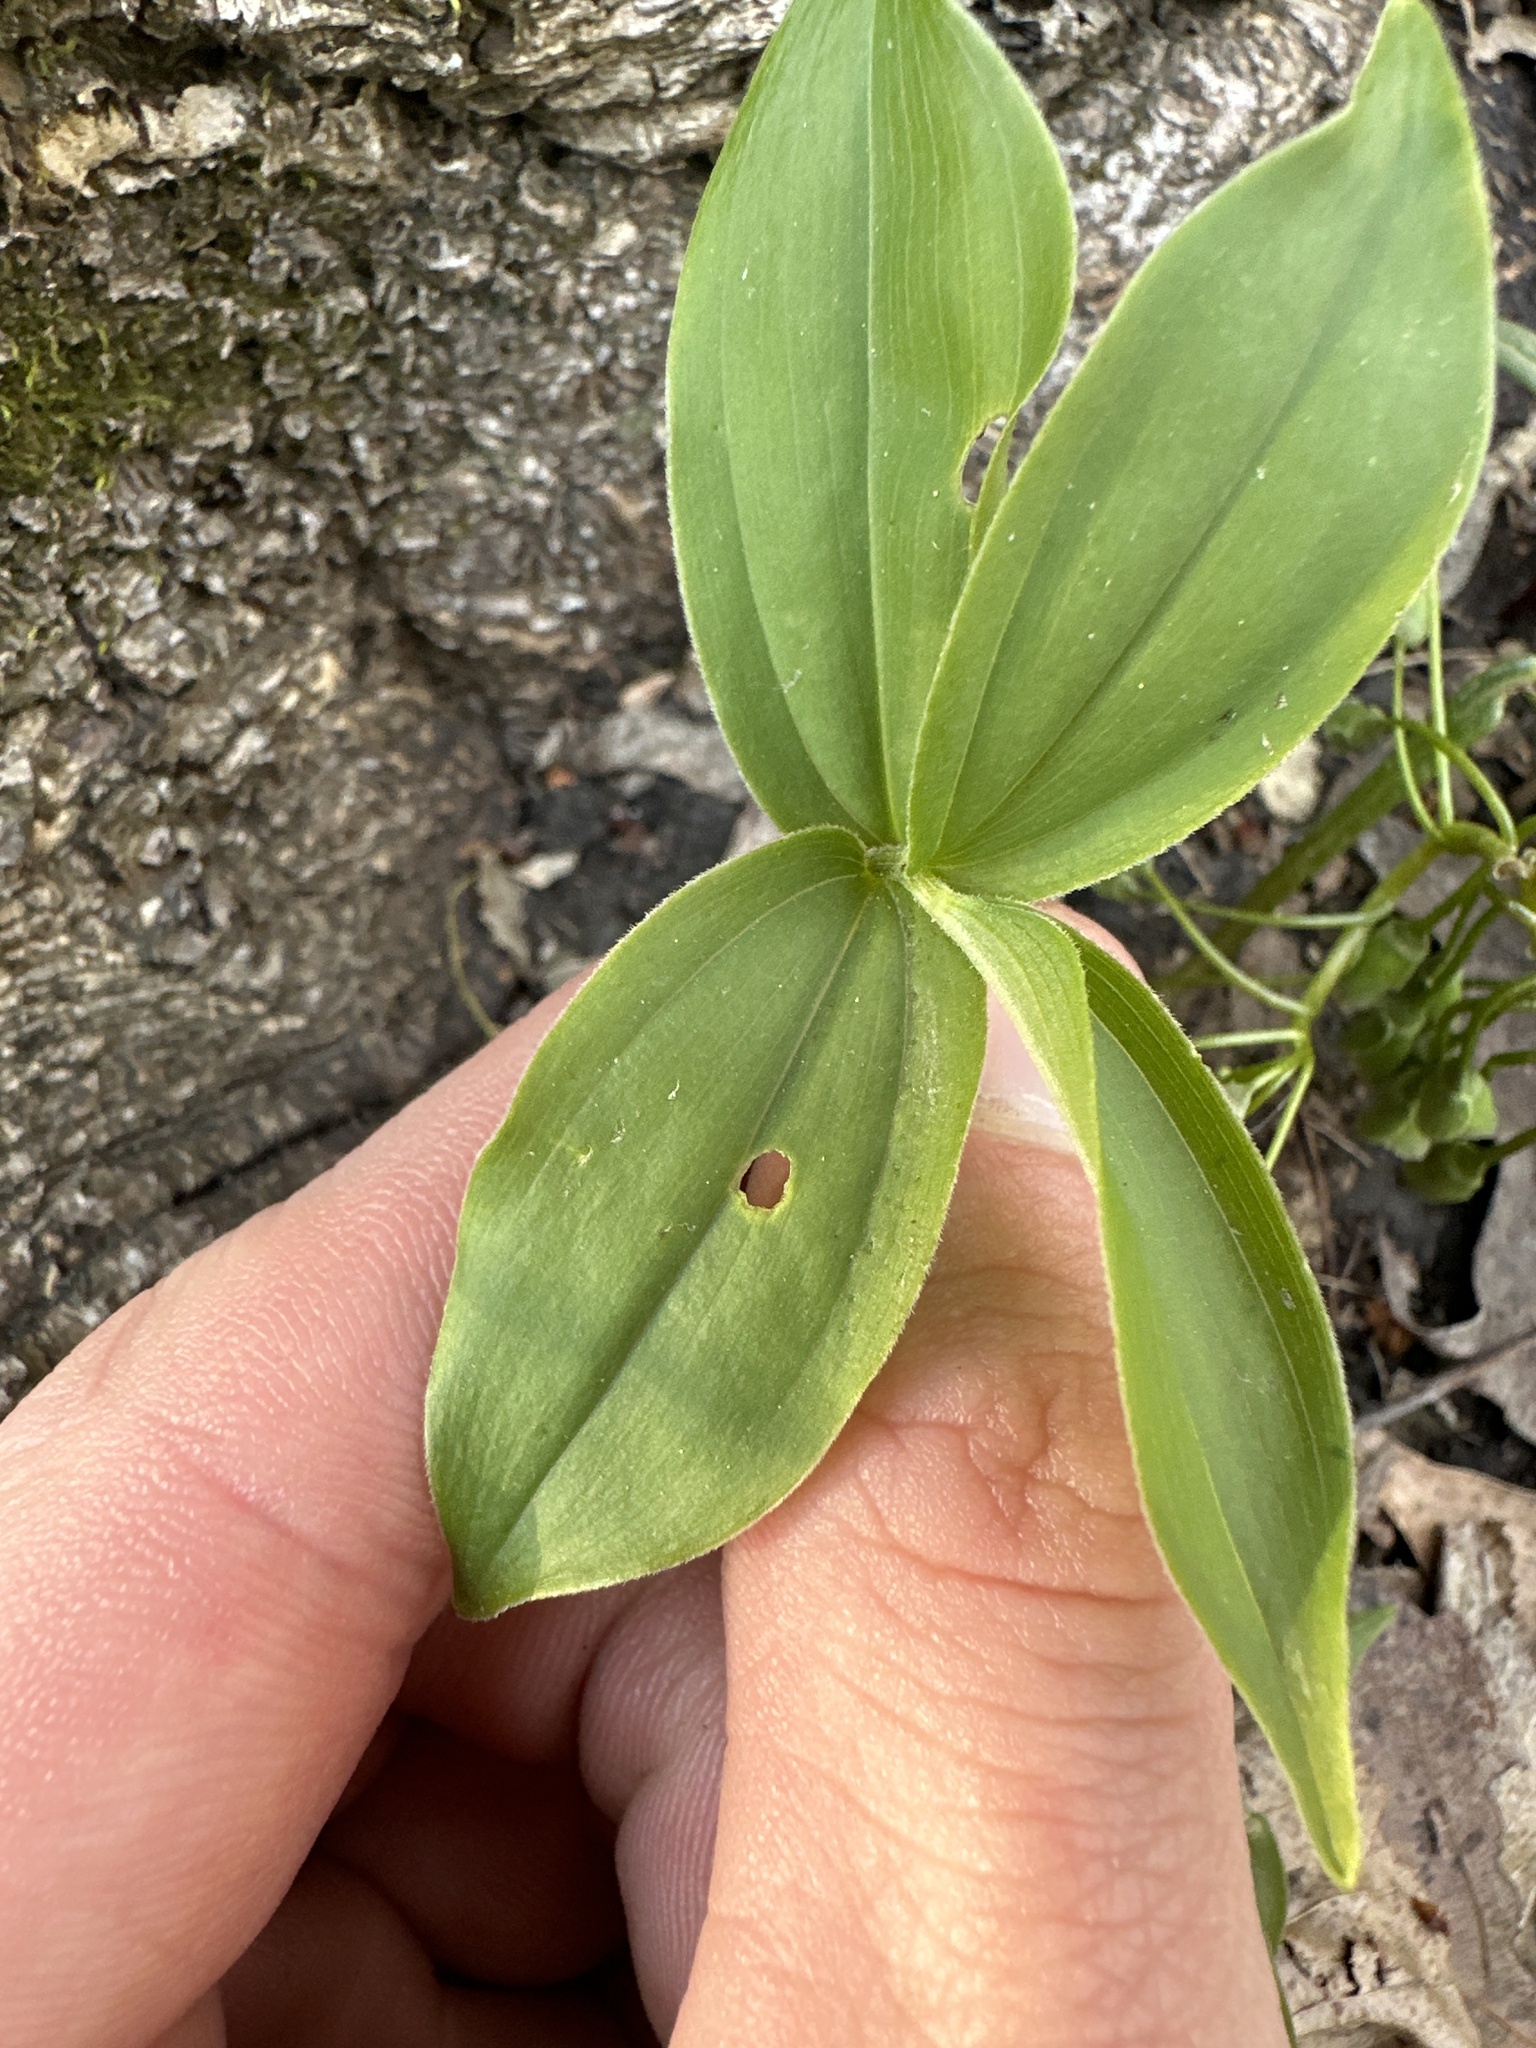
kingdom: Plantae
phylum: Tracheophyta
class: Liliopsida
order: Asparagales
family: Asparagaceae
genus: Maianthemum
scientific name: Maianthemum racemosum
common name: False spikenard
